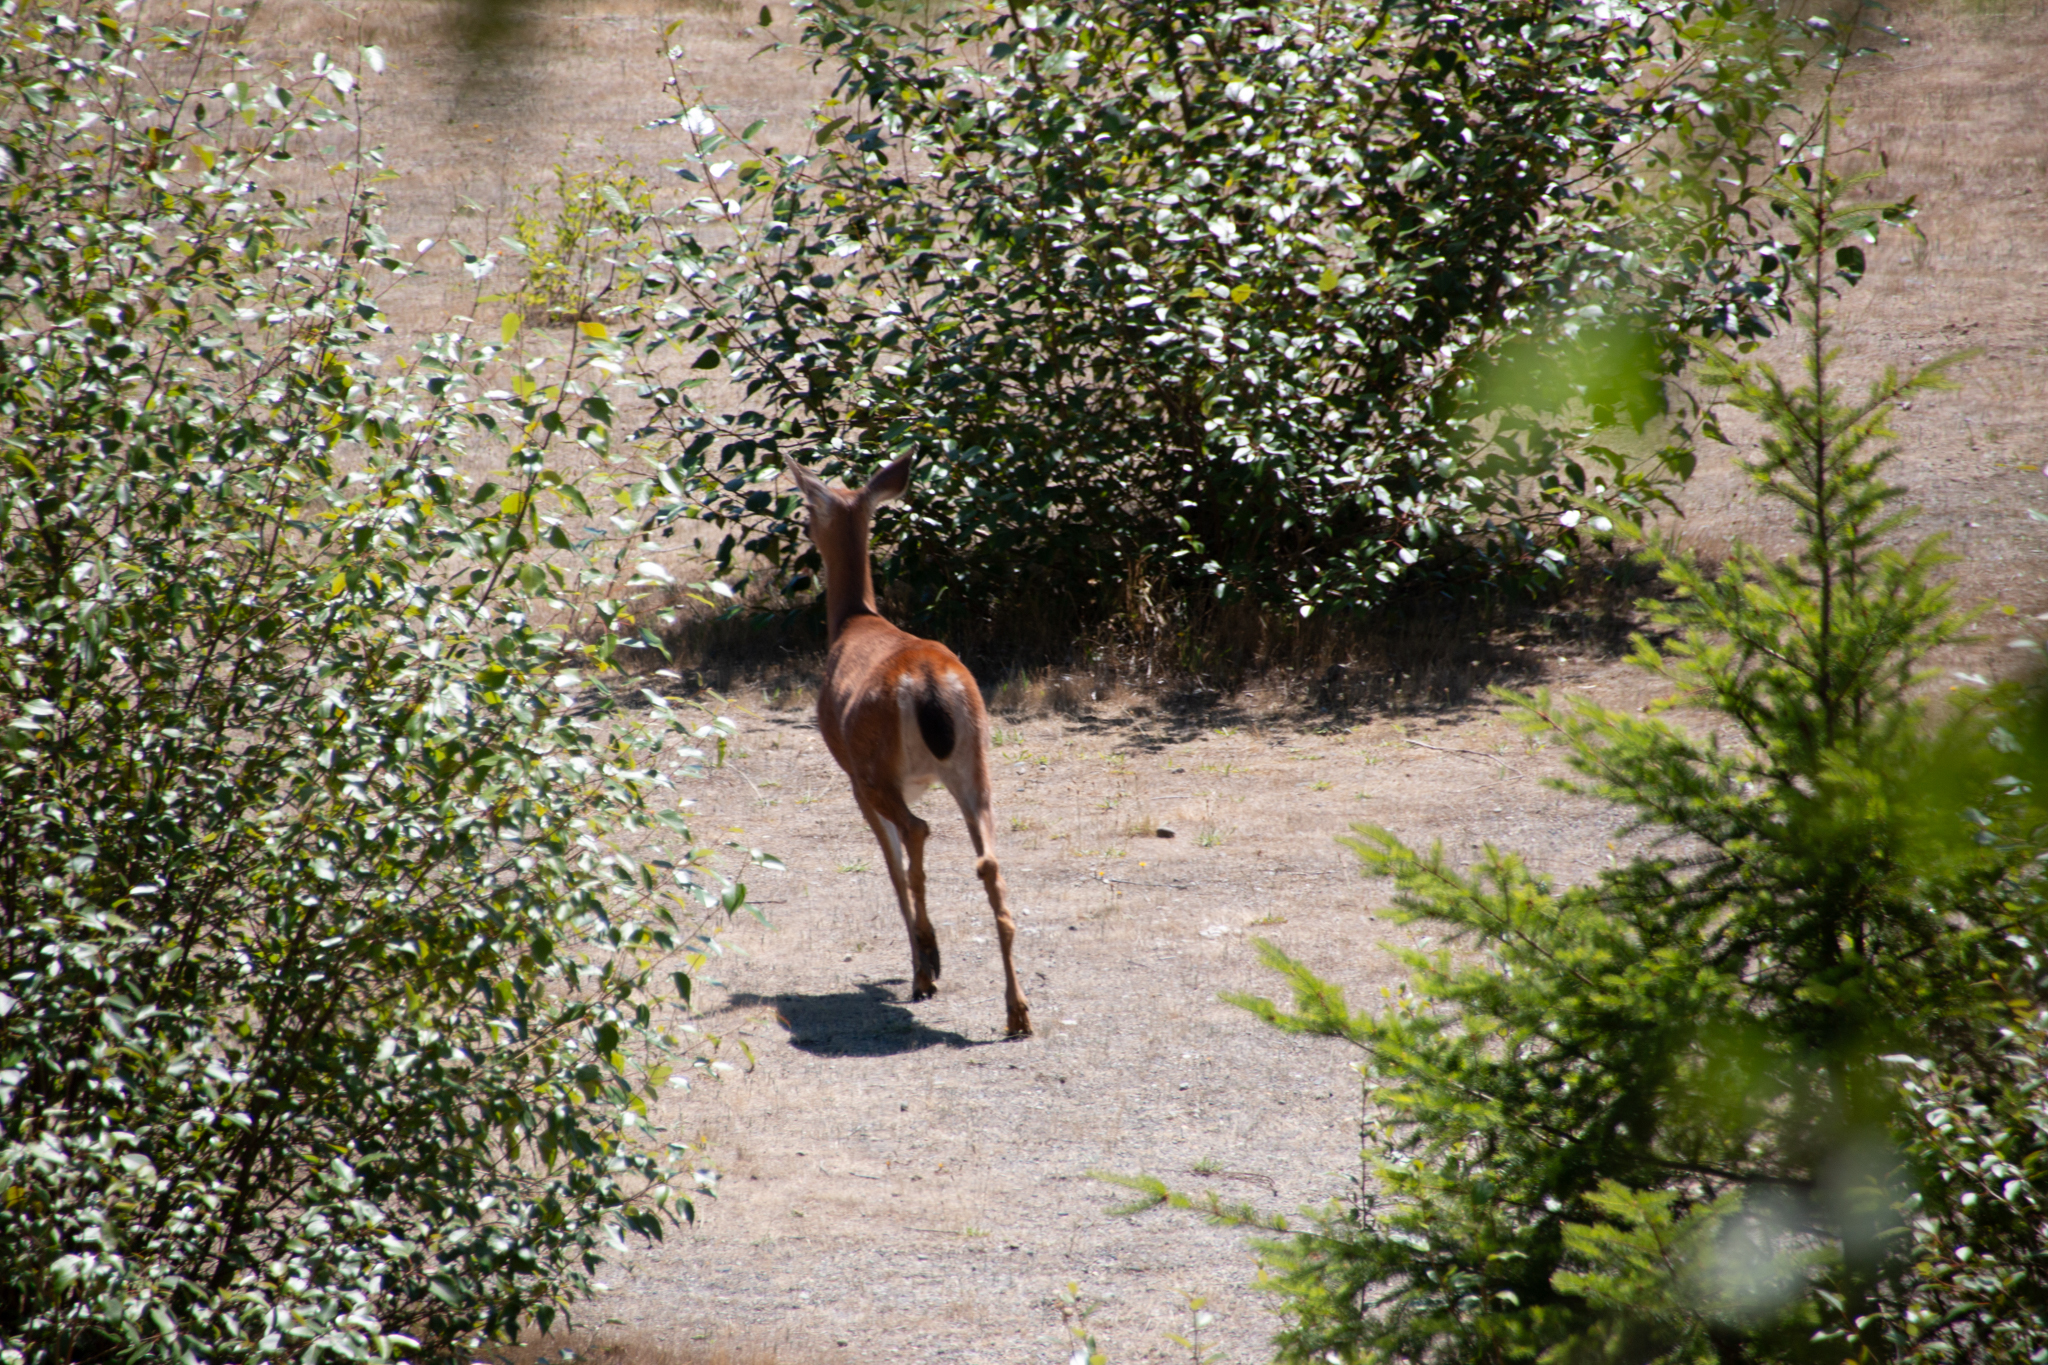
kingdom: Animalia
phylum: Chordata
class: Mammalia
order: Artiodactyla
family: Cervidae
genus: Odocoileus
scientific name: Odocoileus hemionus
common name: Mule deer
